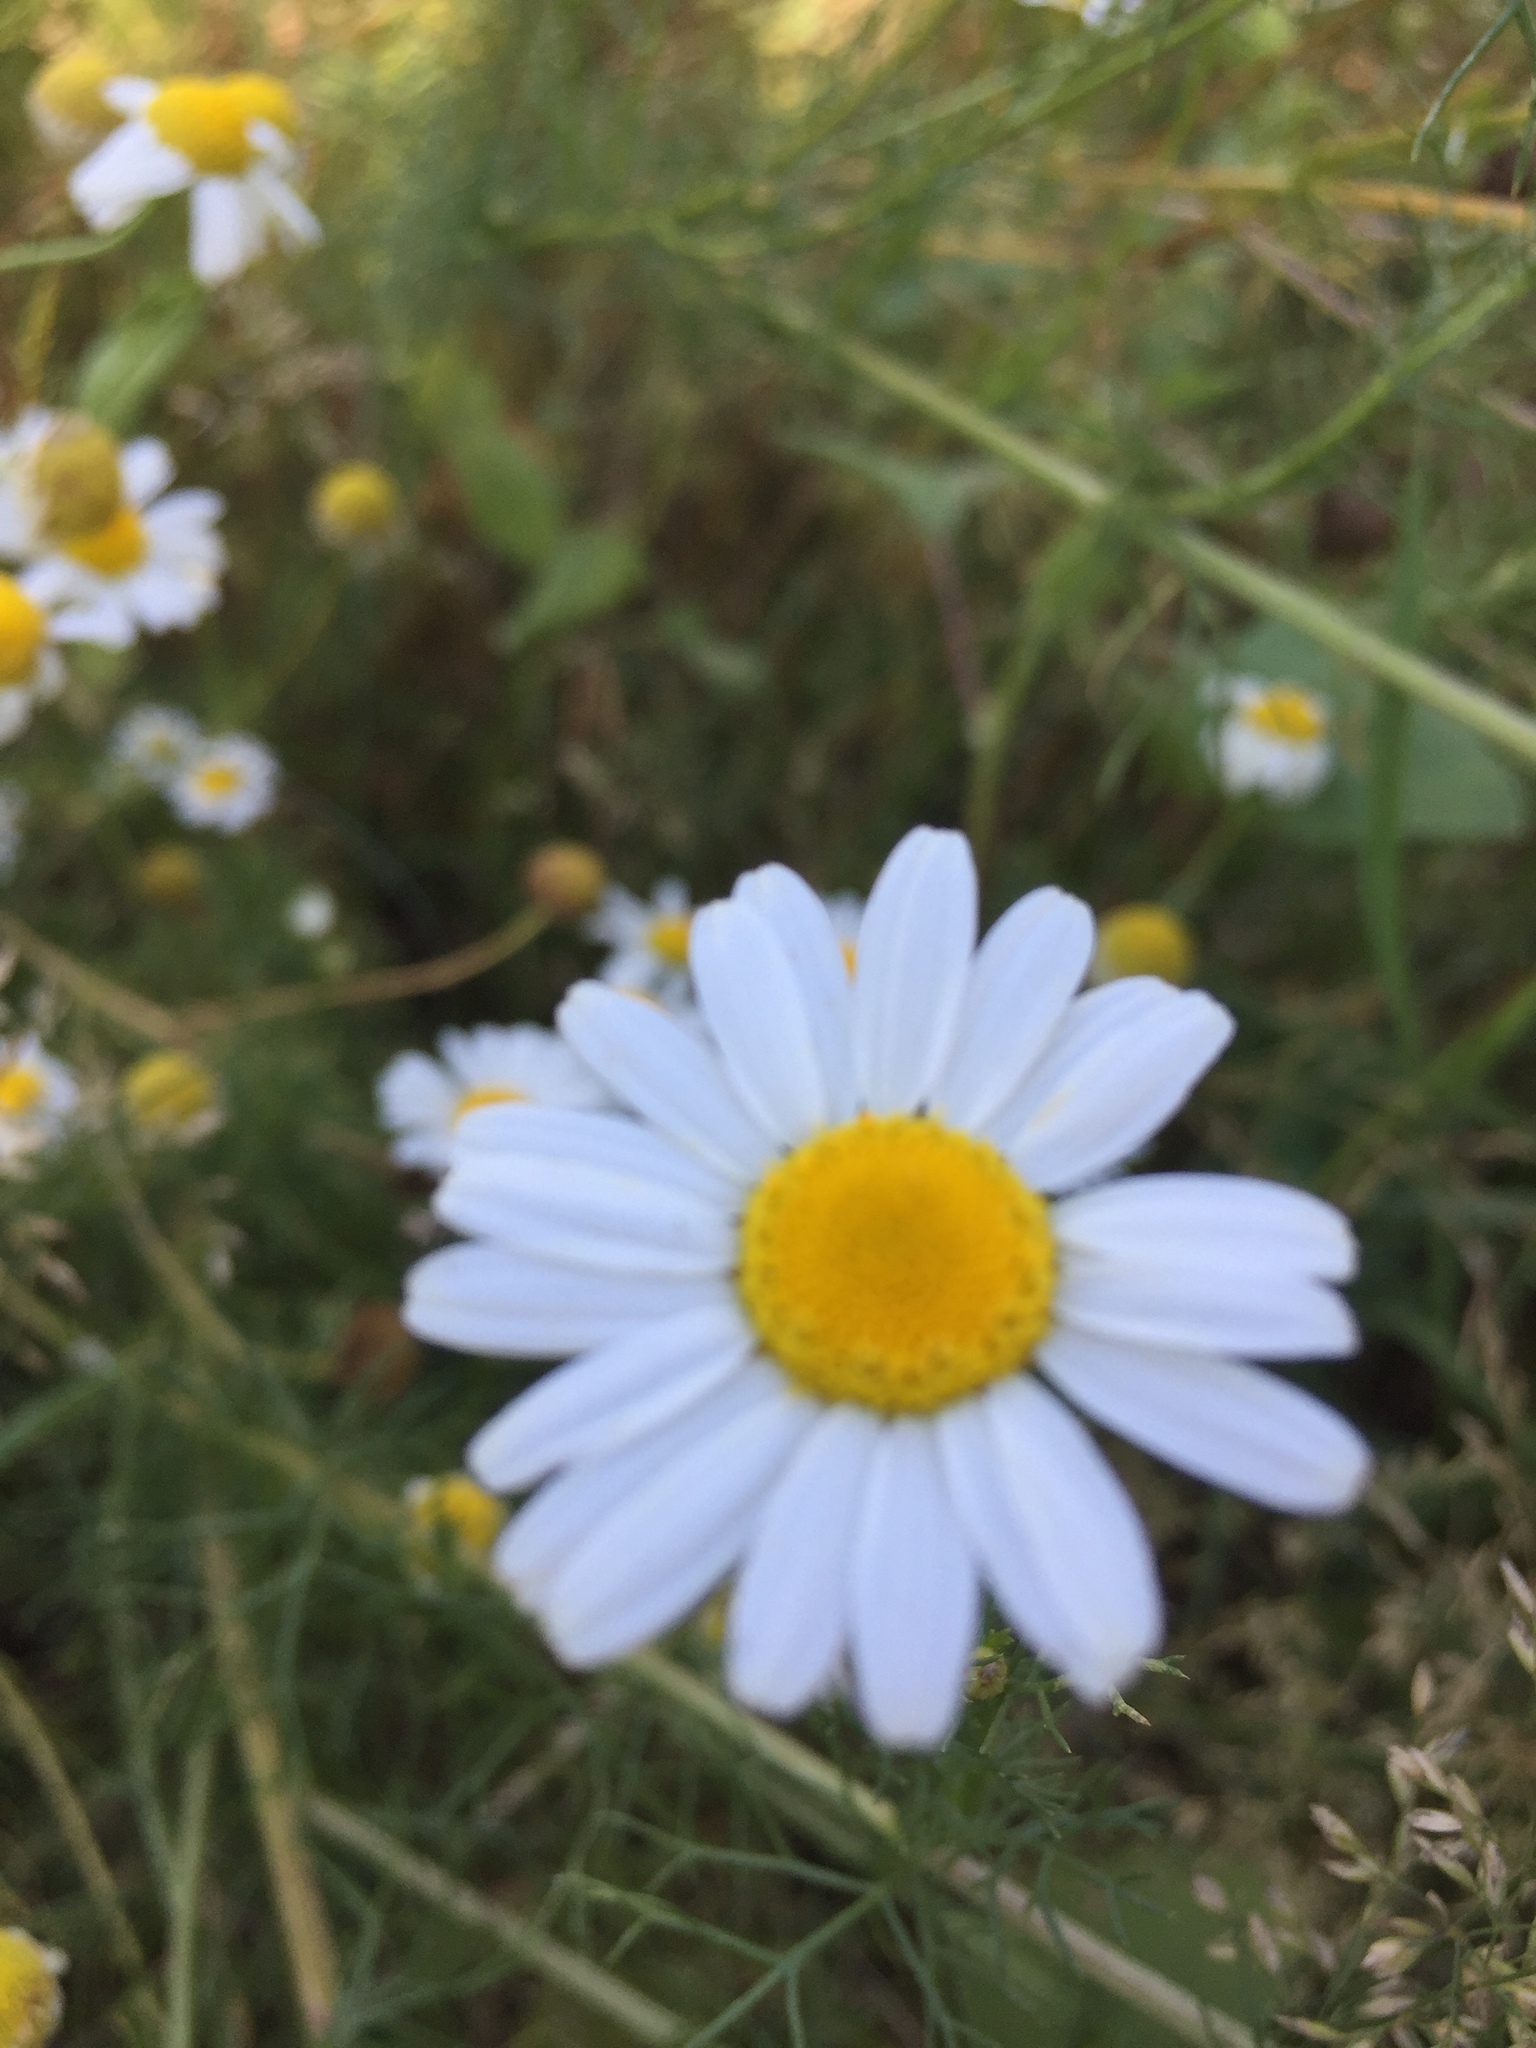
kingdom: Plantae
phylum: Tracheophyta
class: Magnoliopsida
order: Asterales
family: Asteraceae
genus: Tripleurospermum
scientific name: Tripleurospermum inodorum
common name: Scentless mayweed
